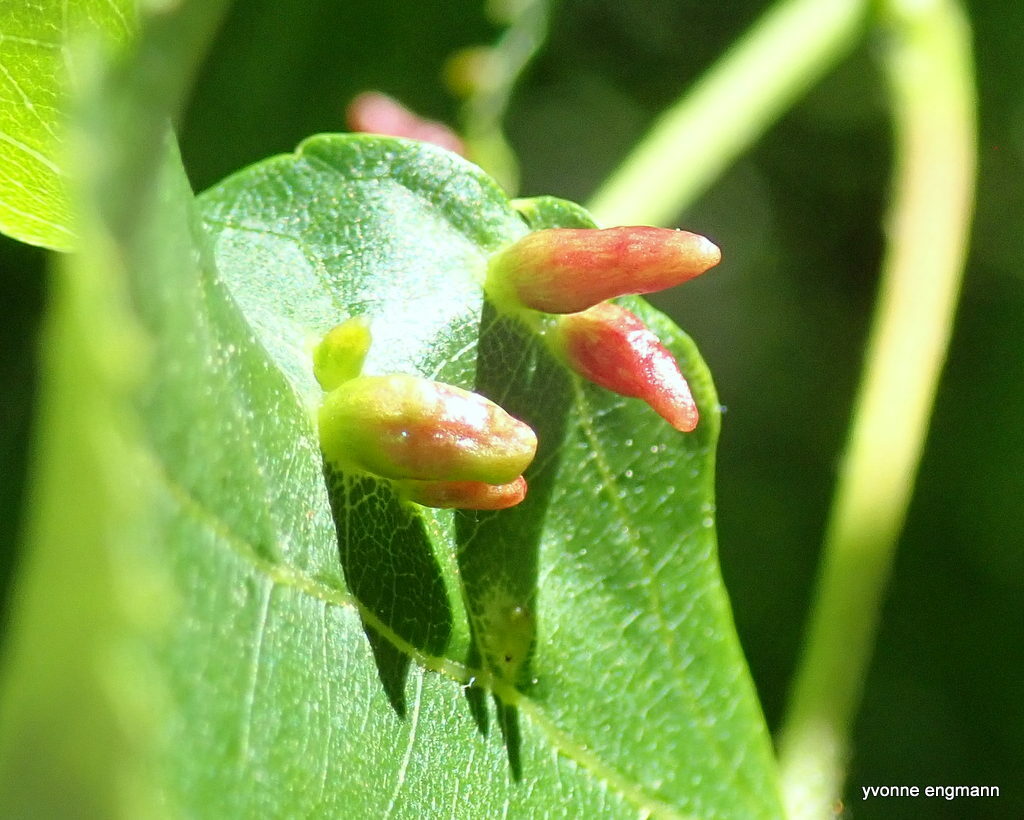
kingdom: Animalia
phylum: Arthropoda
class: Arachnida
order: Trombidiformes
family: Eriophyidae
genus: Eriophyes
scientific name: Eriophyes tiliae
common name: Red nail gall mite
